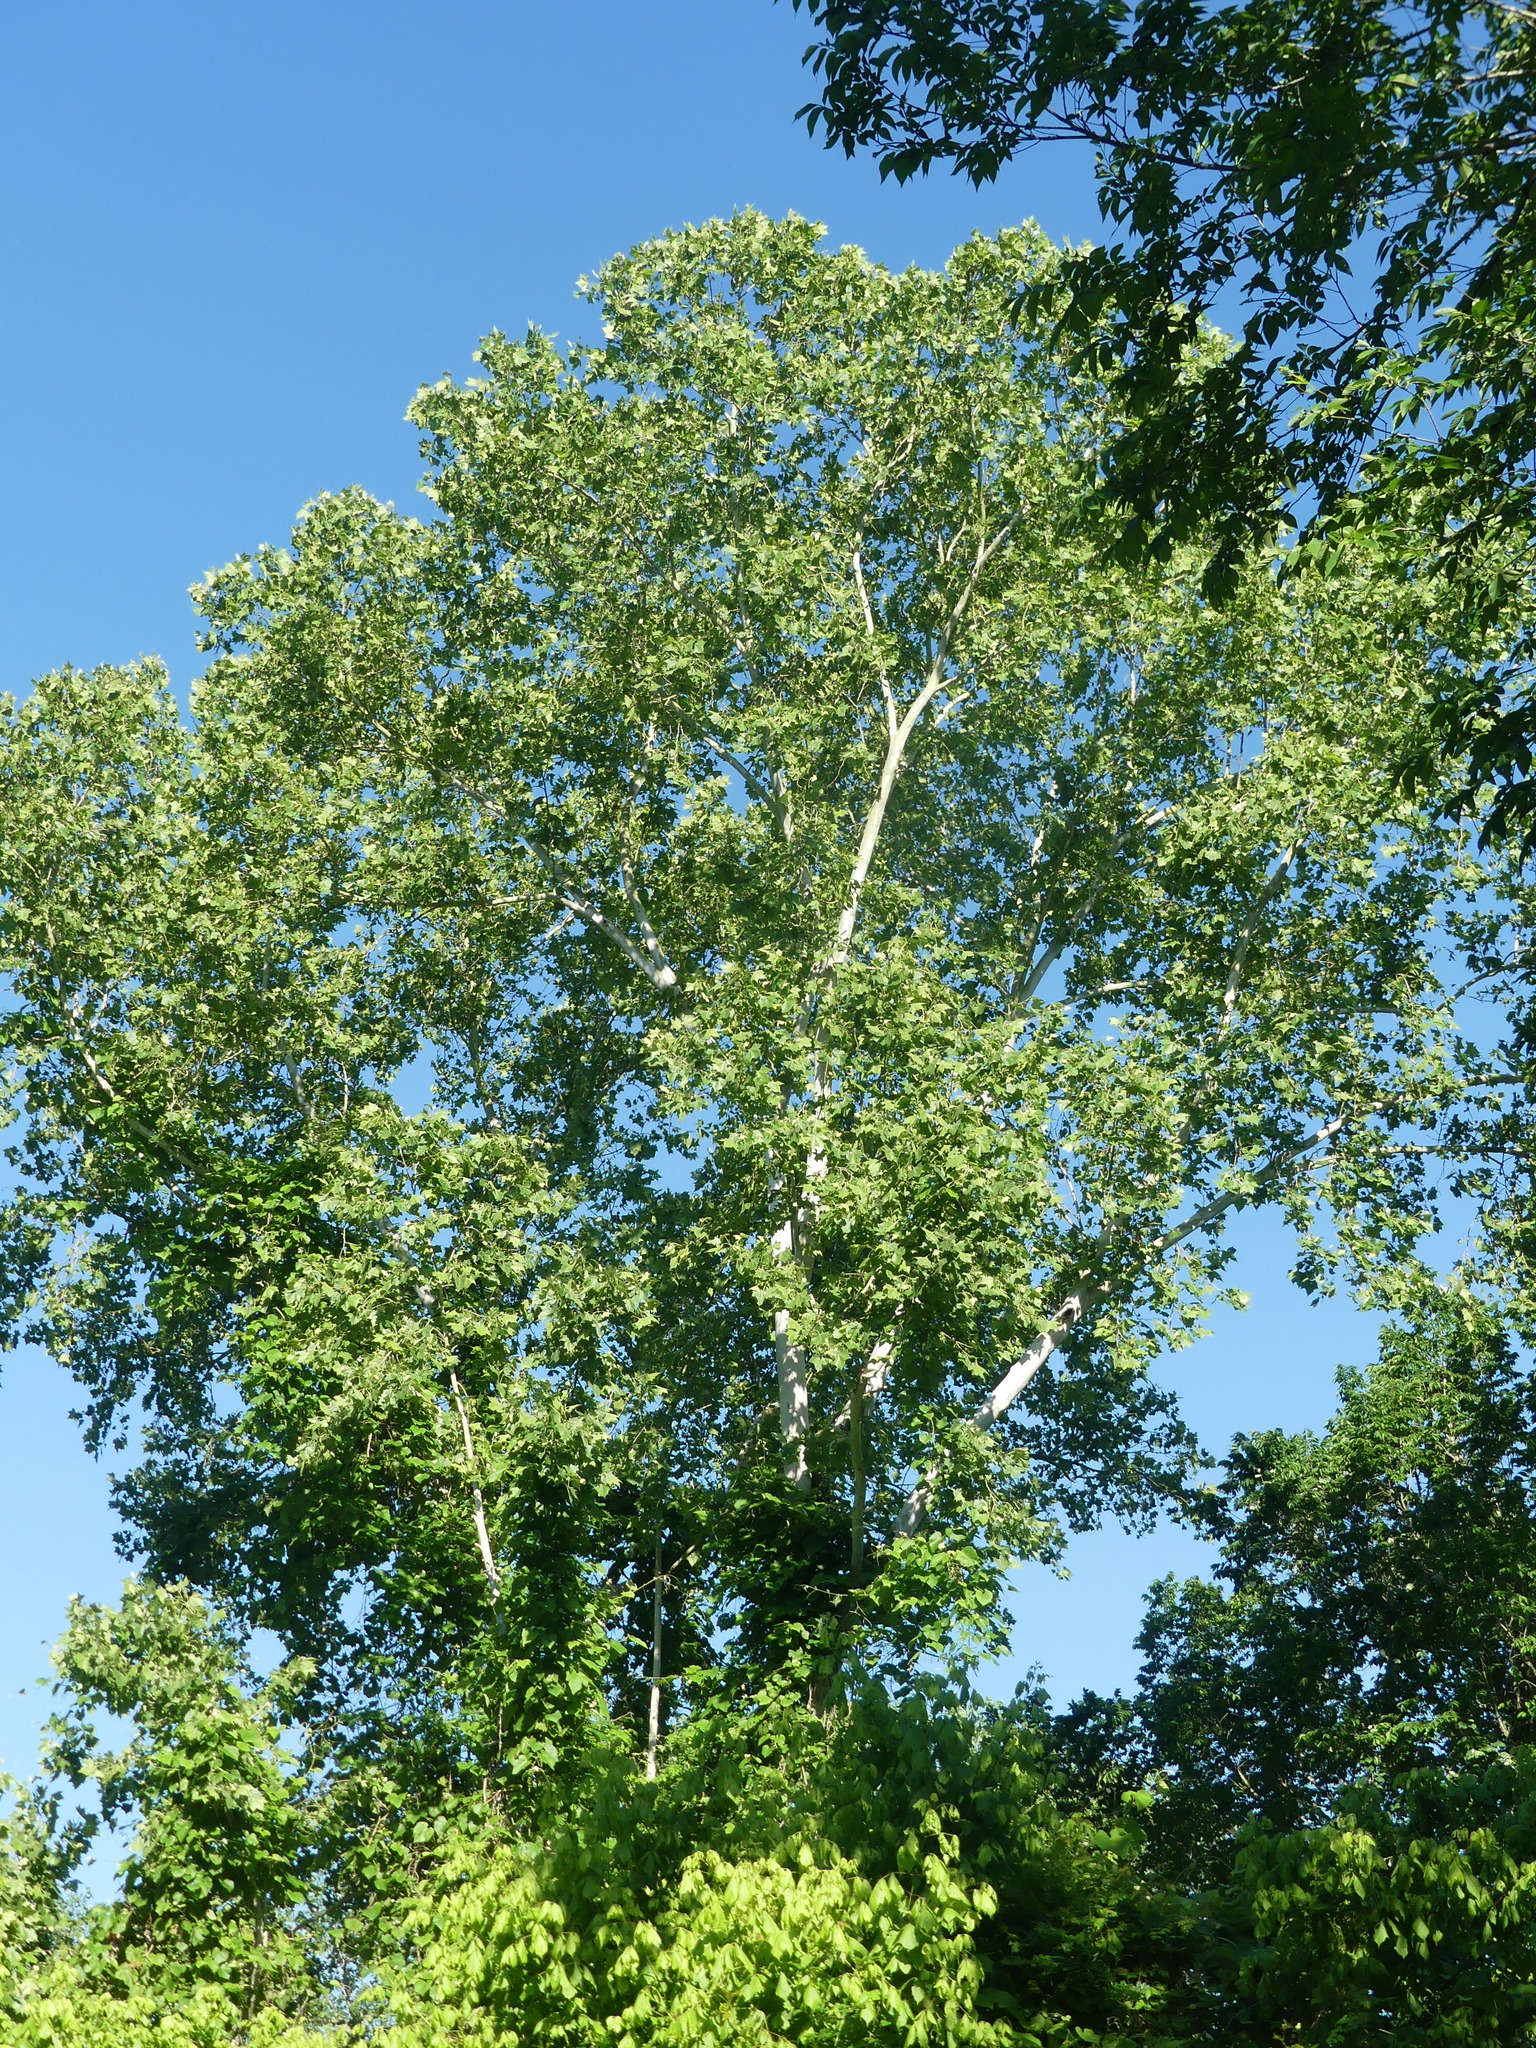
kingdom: Plantae
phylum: Tracheophyta
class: Magnoliopsida
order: Proteales
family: Platanaceae
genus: Platanus
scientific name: Platanus occidentalis
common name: American sycamore
